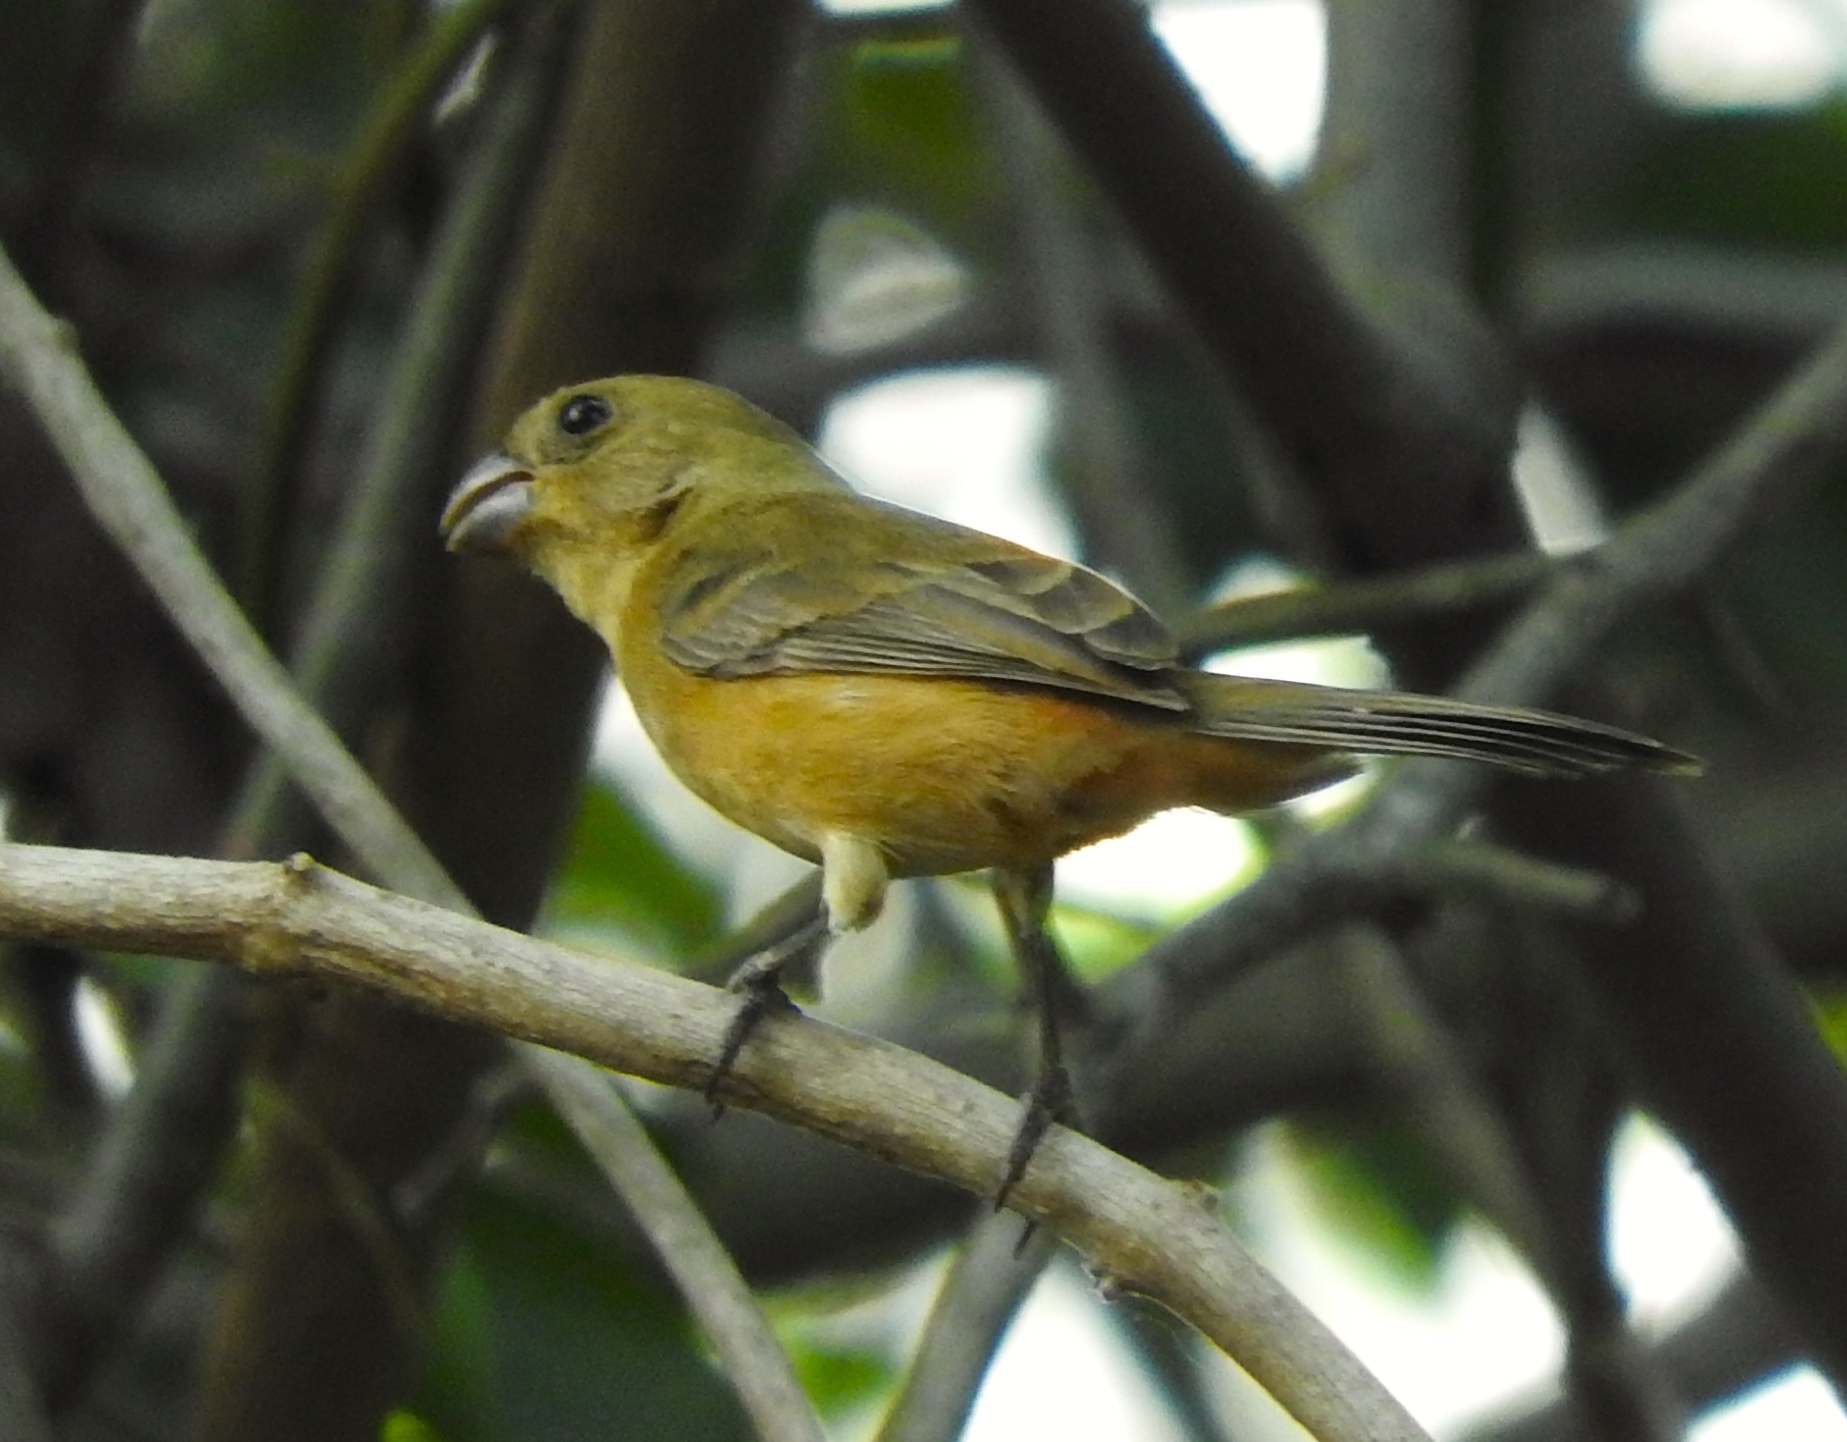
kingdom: Animalia
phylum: Chordata
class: Aves
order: Passeriformes
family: Thraupidae
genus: Sporophila
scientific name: Sporophila torqueola
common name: White-collared seedeater
